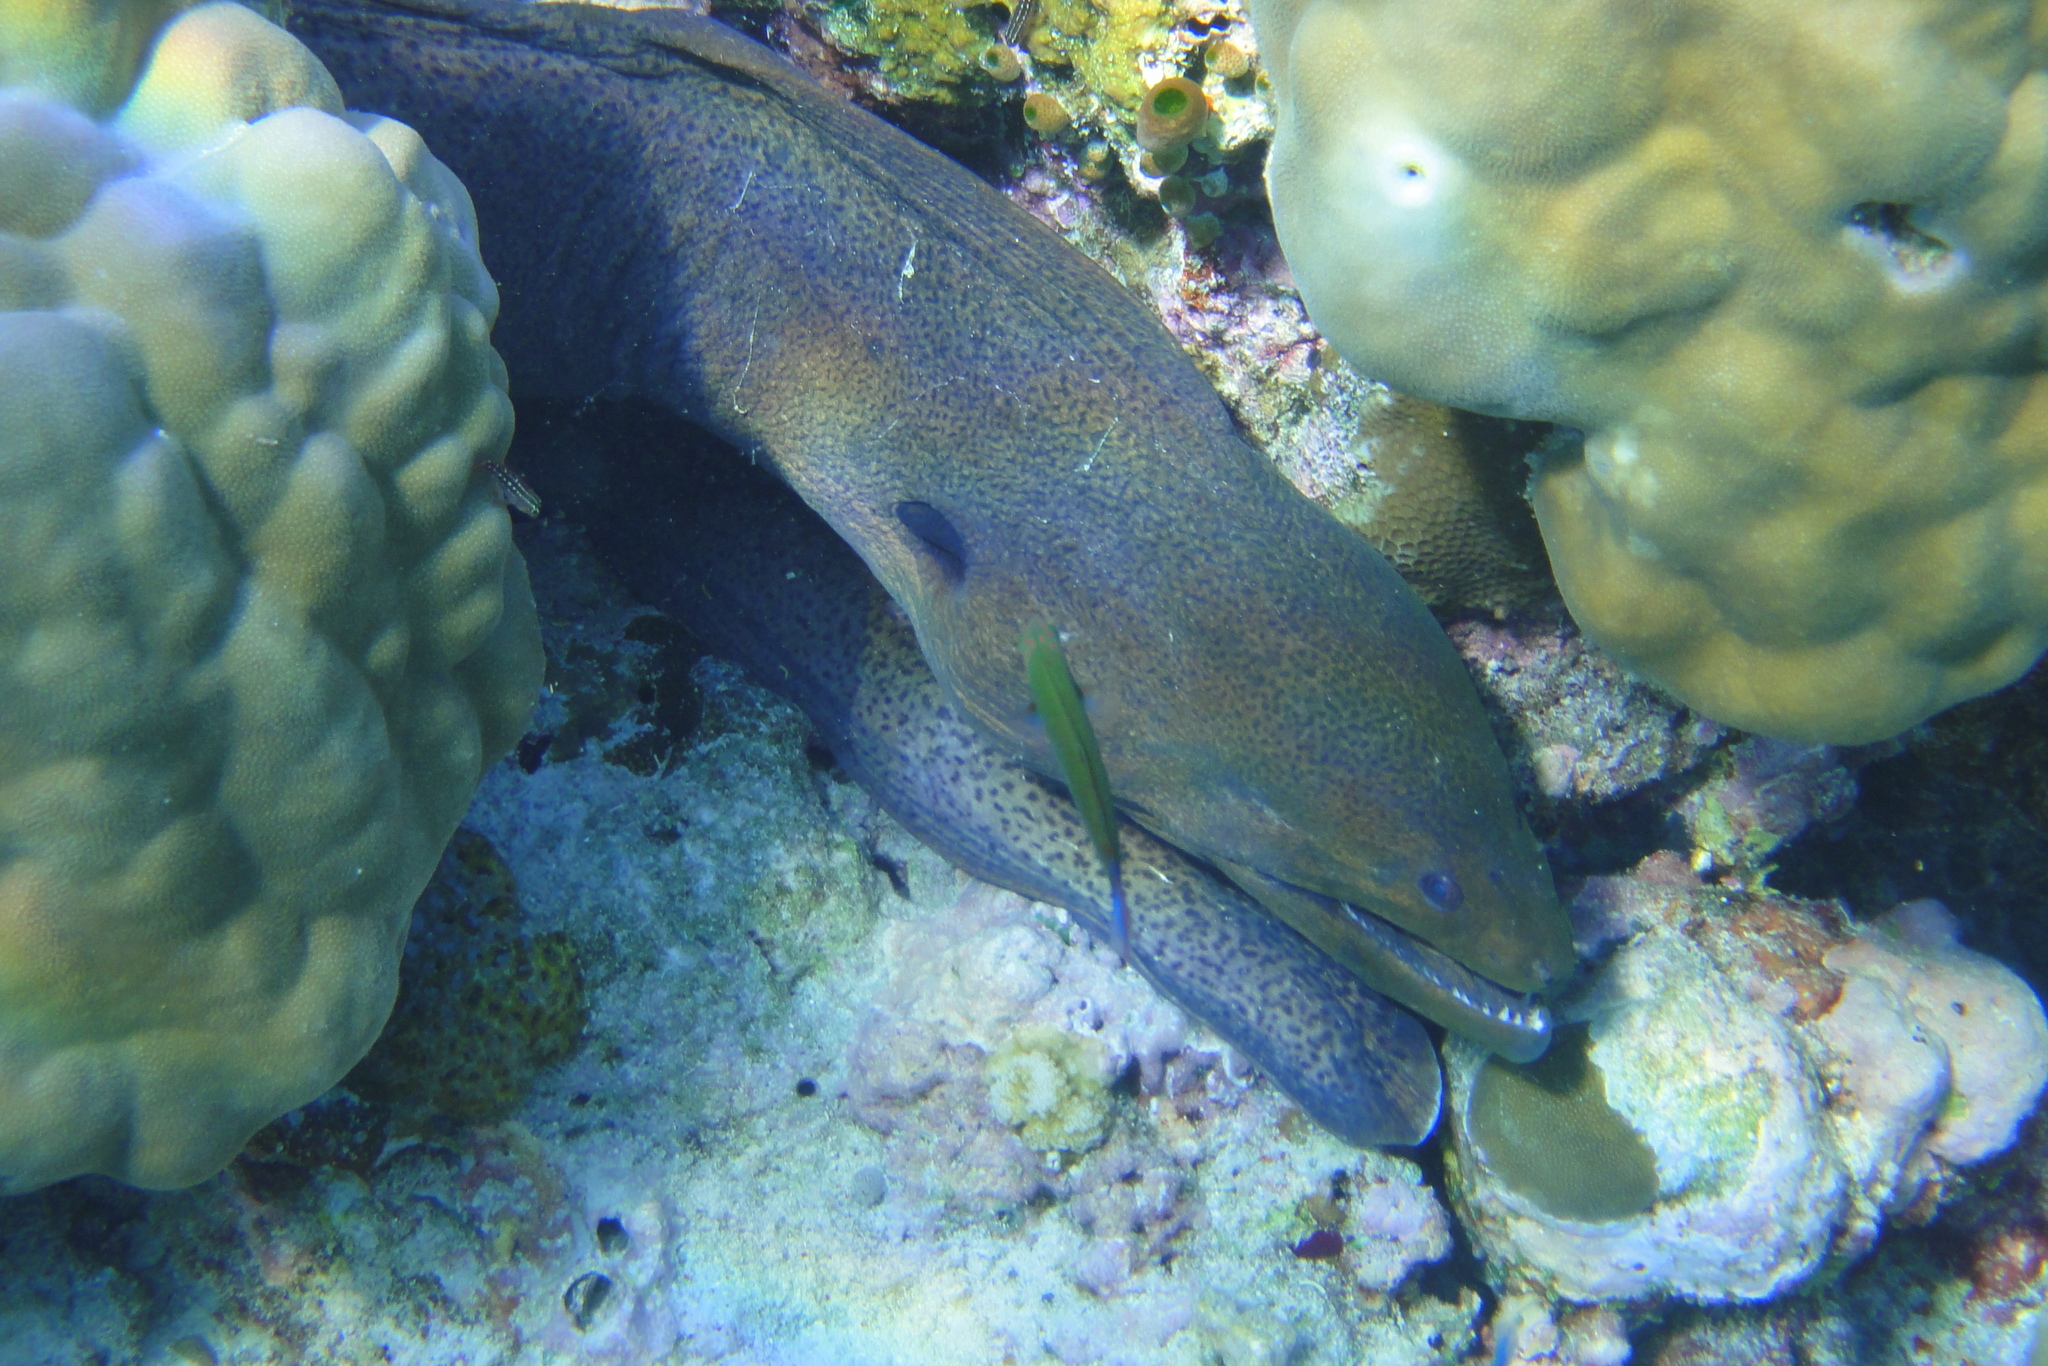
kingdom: Animalia
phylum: Chordata
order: Anguilliformes
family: Muraenidae
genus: Gymnothorax
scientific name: Gymnothorax javanicus
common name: Giant moray
